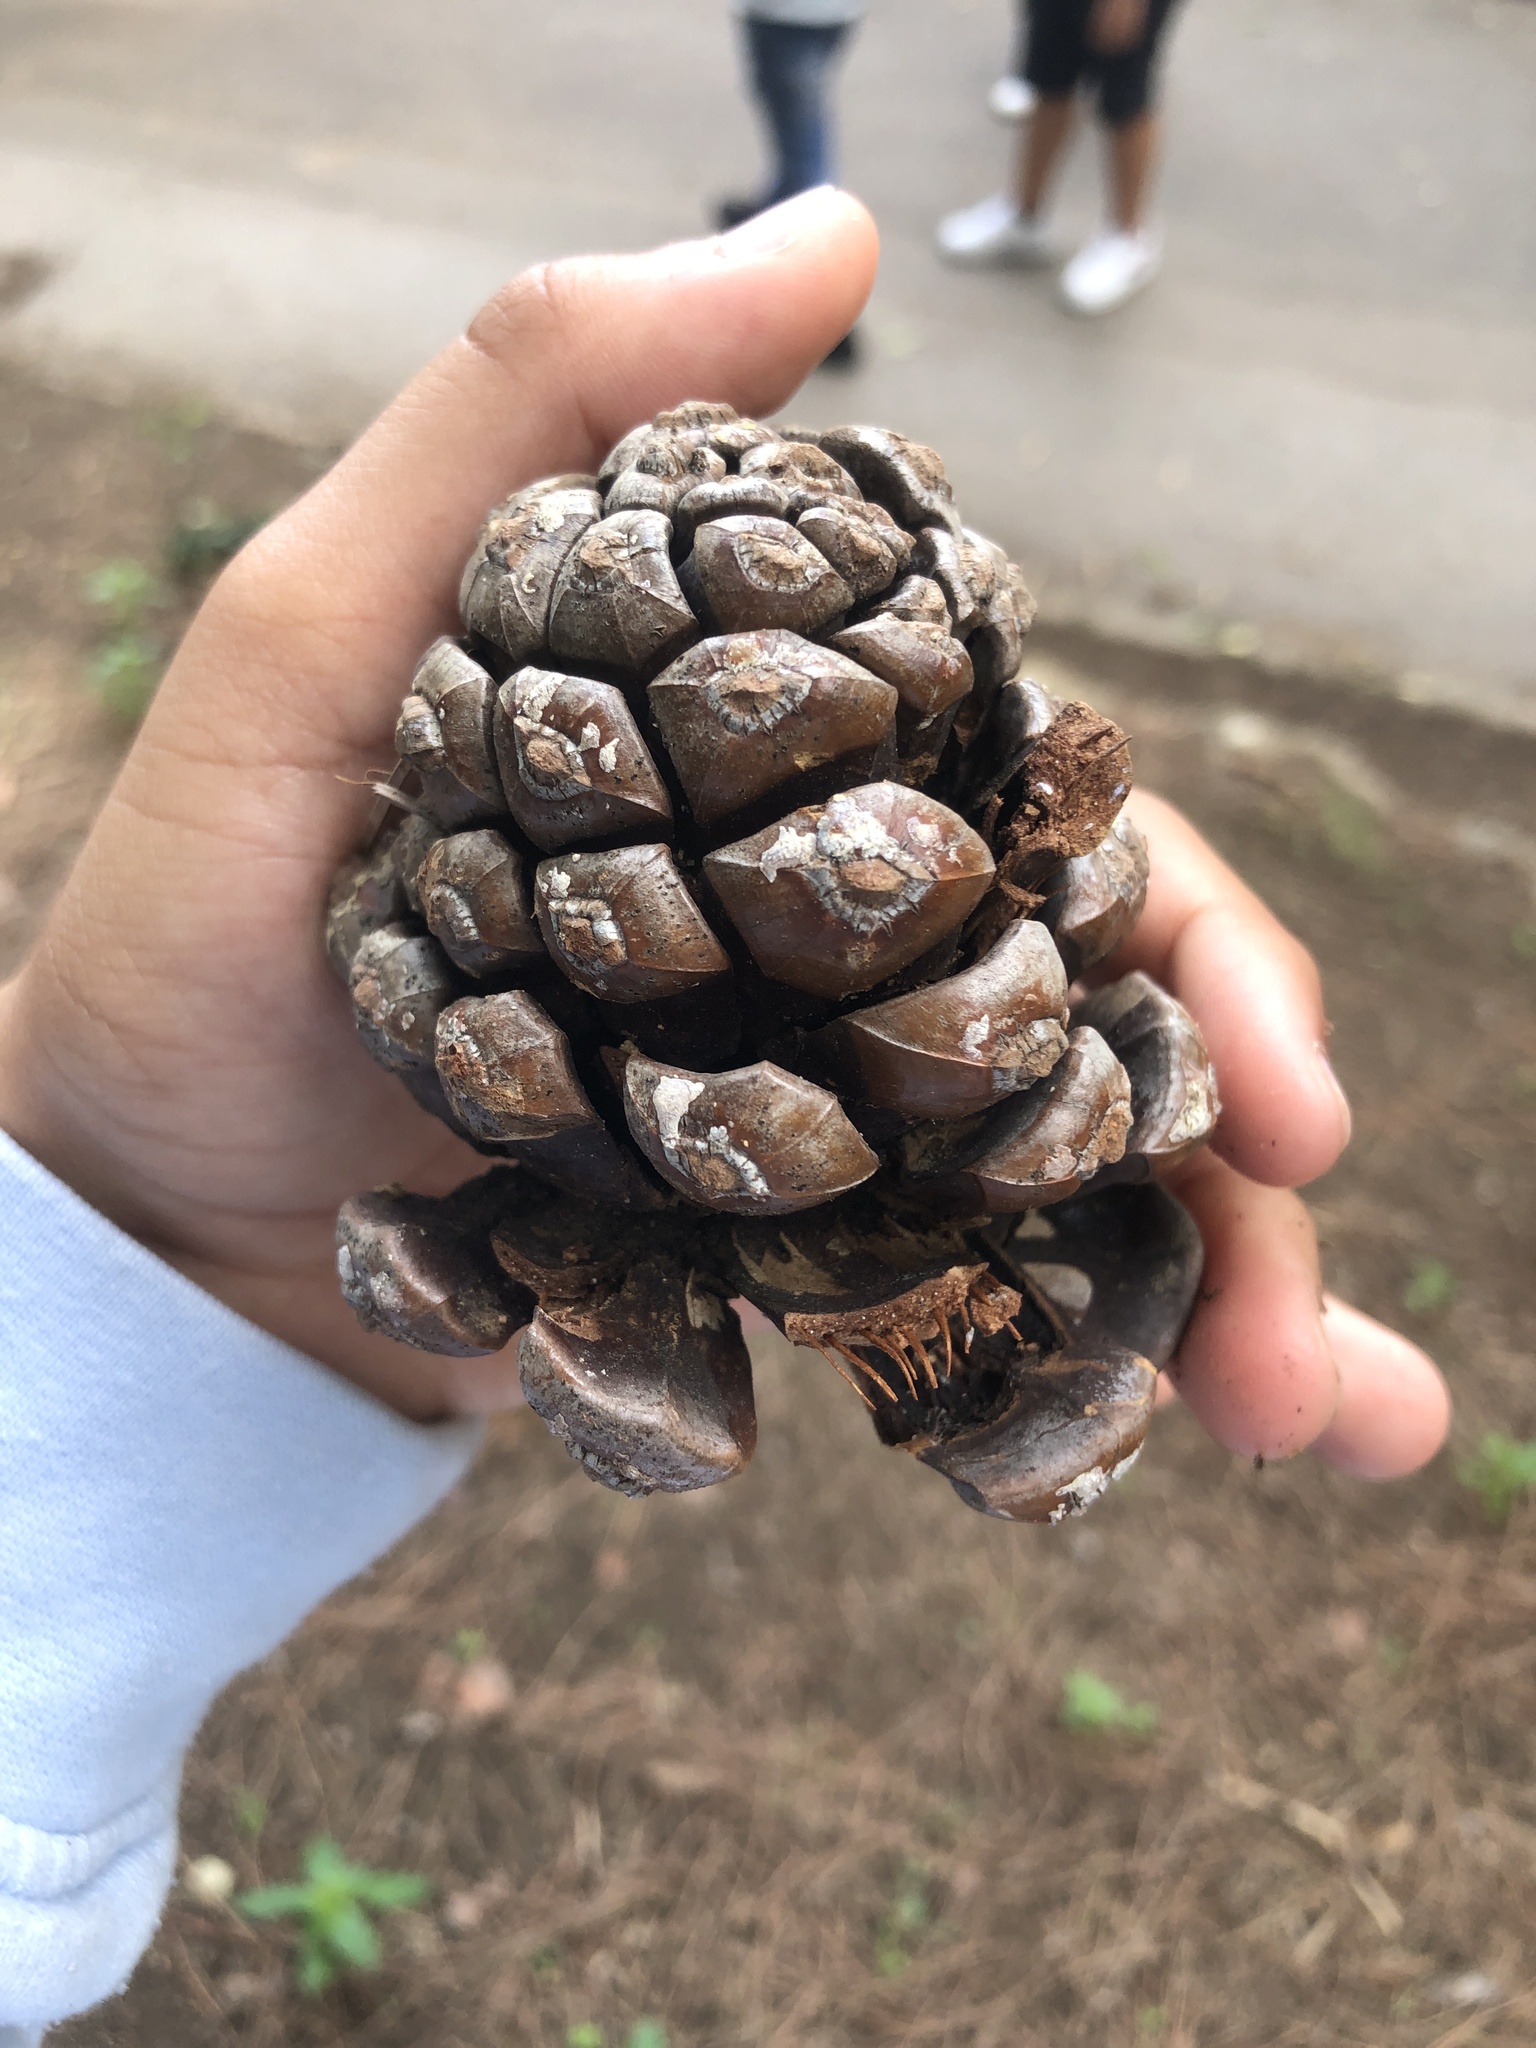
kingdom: Plantae
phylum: Tracheophyta
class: Pinopsida
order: Pinales
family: Pinaceae
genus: Pinus
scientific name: Pinus pinea
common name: Italian stone pine
